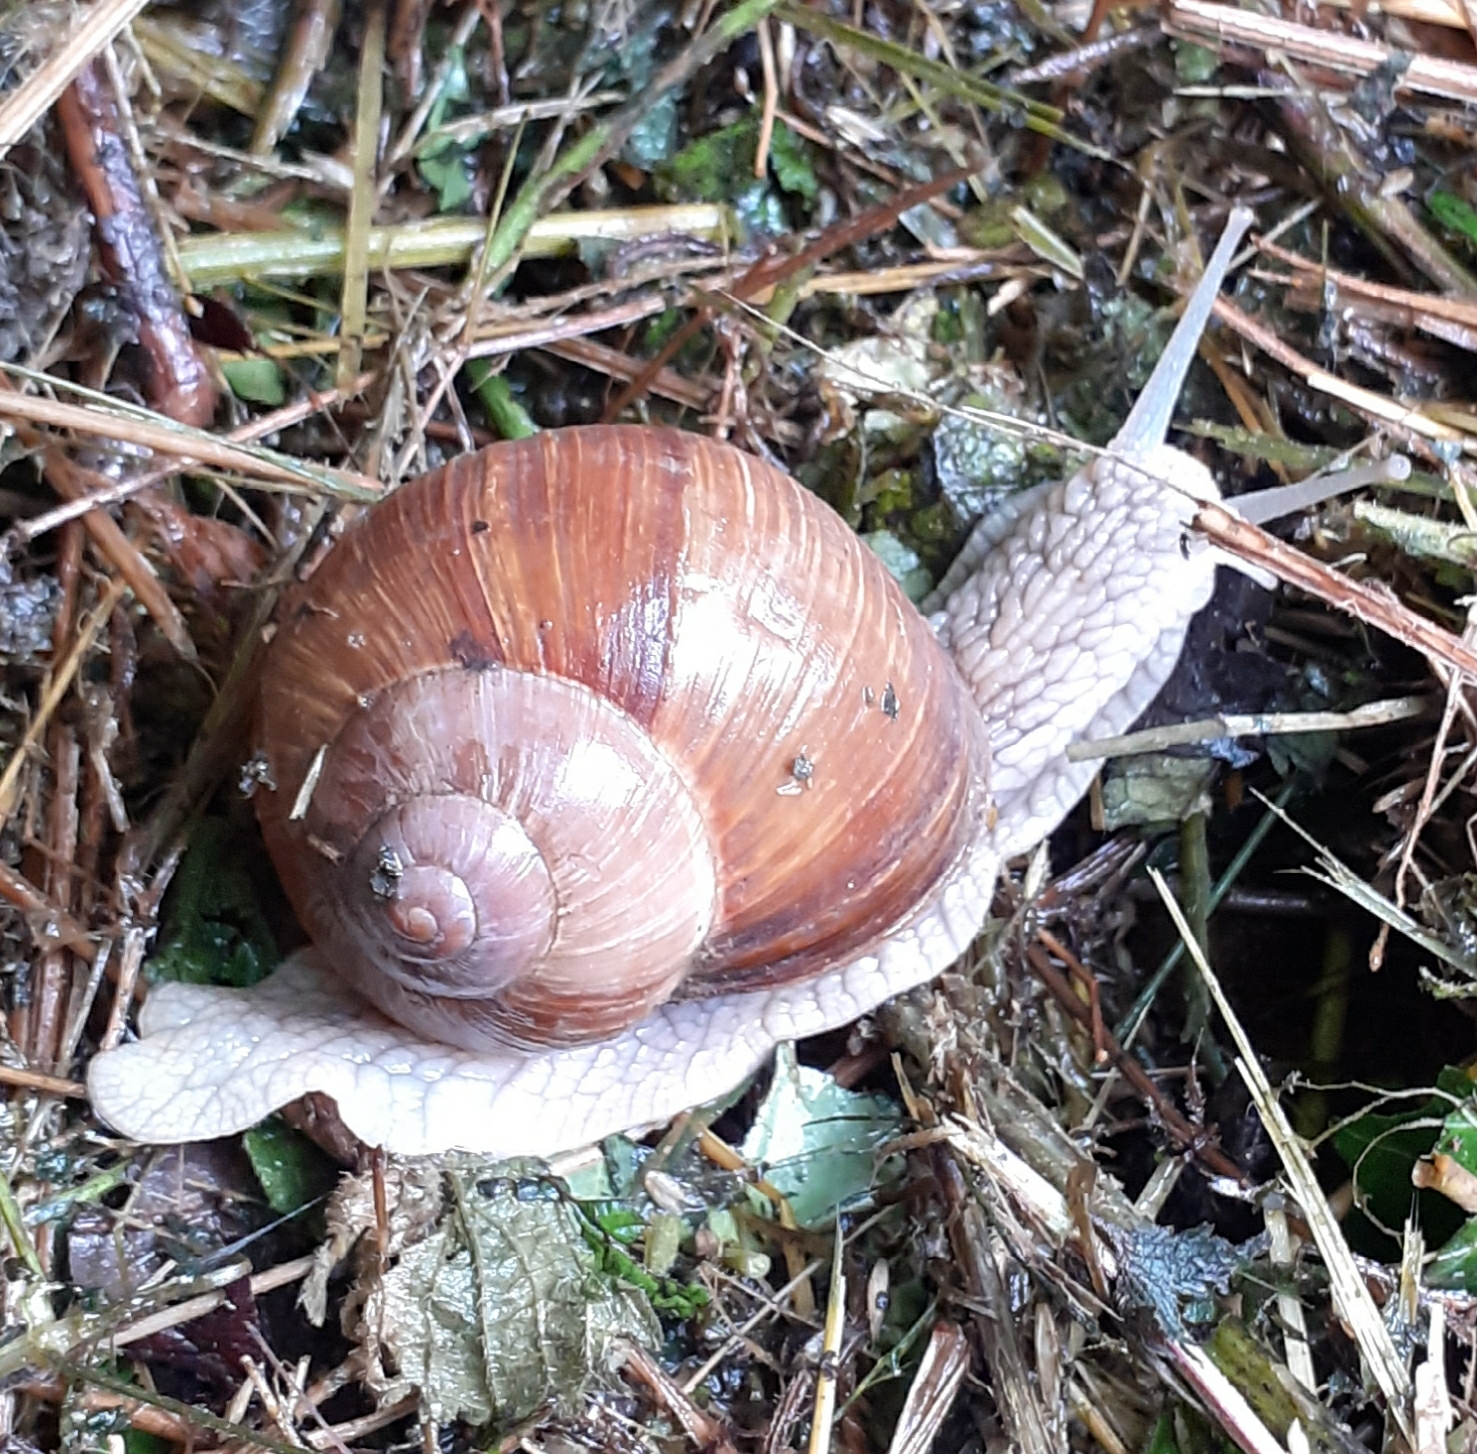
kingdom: Animalia
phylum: Mollusca
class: Gastropoda
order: Stylommatophora
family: Helicidae
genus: Helix
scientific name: Helix pomatia
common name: Roman snail
